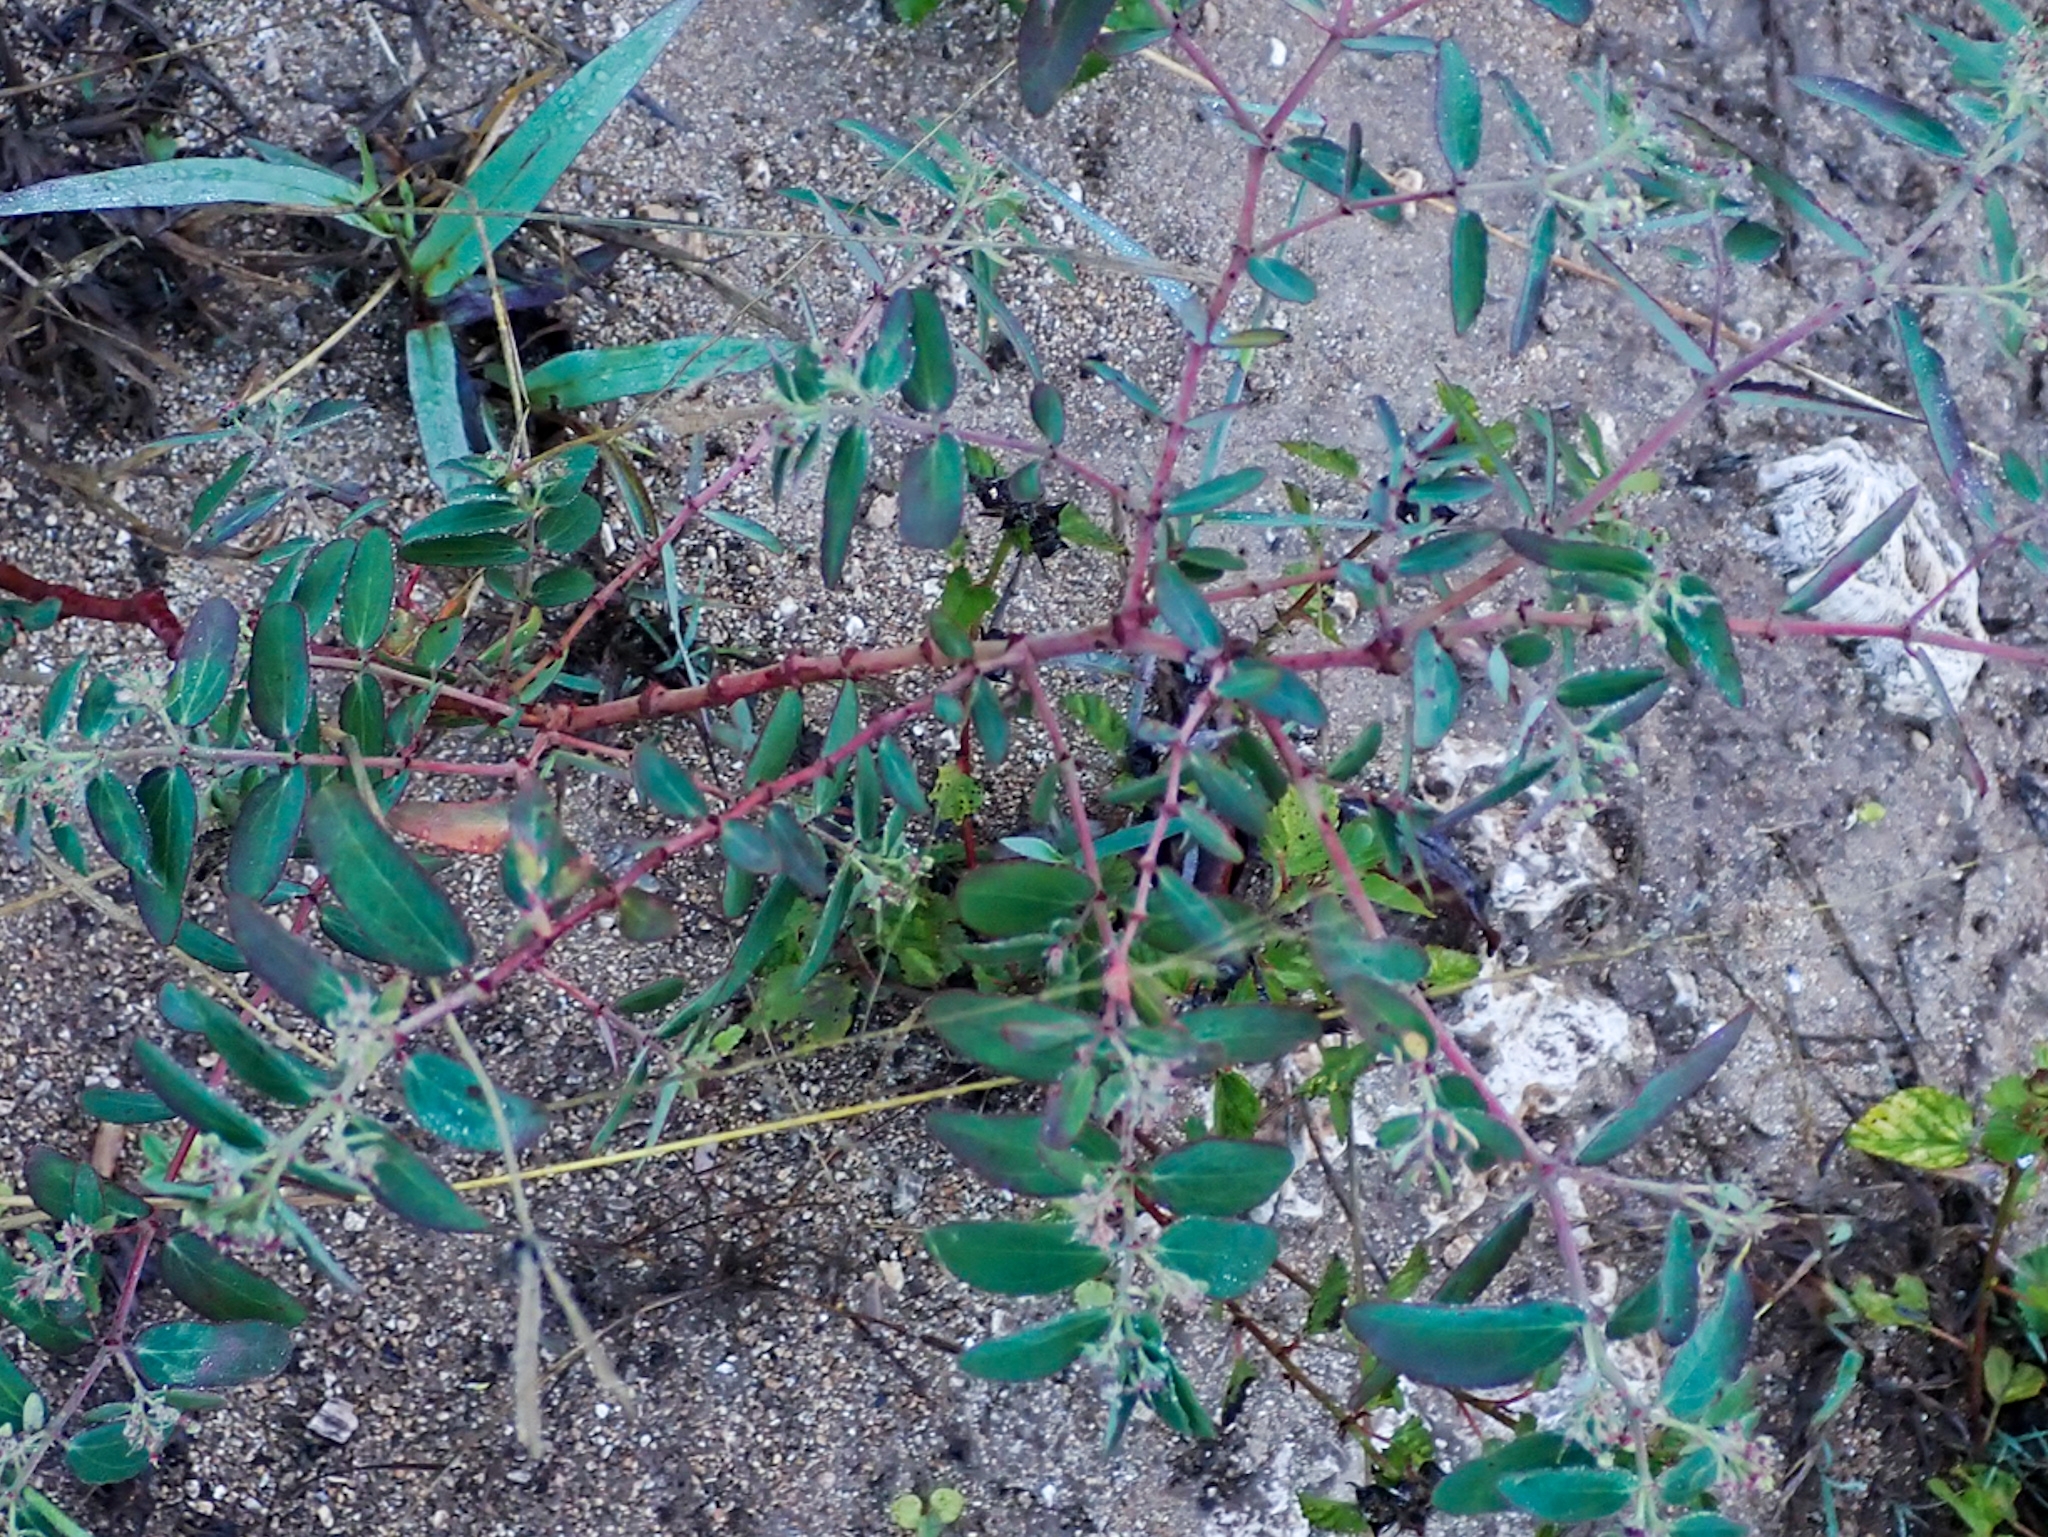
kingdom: Plantae
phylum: Tracheophyta
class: Magnoliopsida
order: Malpighiales
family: Euphorbiaceae
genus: Euphorbia
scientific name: Euphorbia hypericifolia
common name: Graceful sandmat
